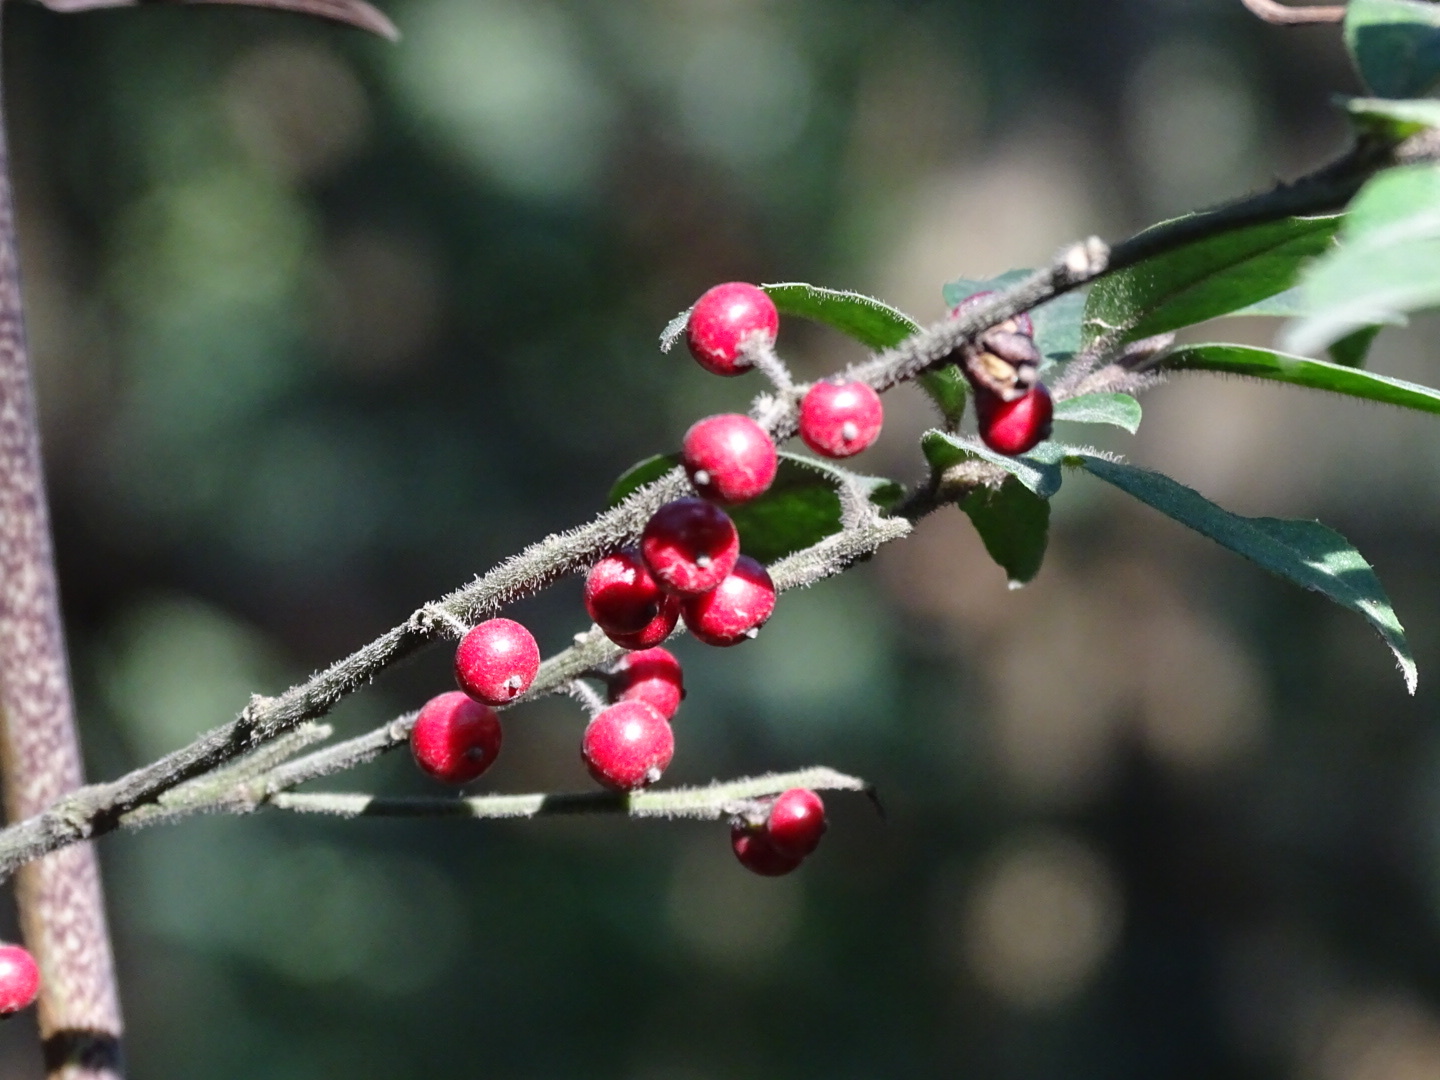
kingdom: Plantae
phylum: Tracheophyta
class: Magnoliopsida
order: Aquifoliales
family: Aquifoliaceae
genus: Ilex
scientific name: Ilex pubescens
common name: Pubescent holly
